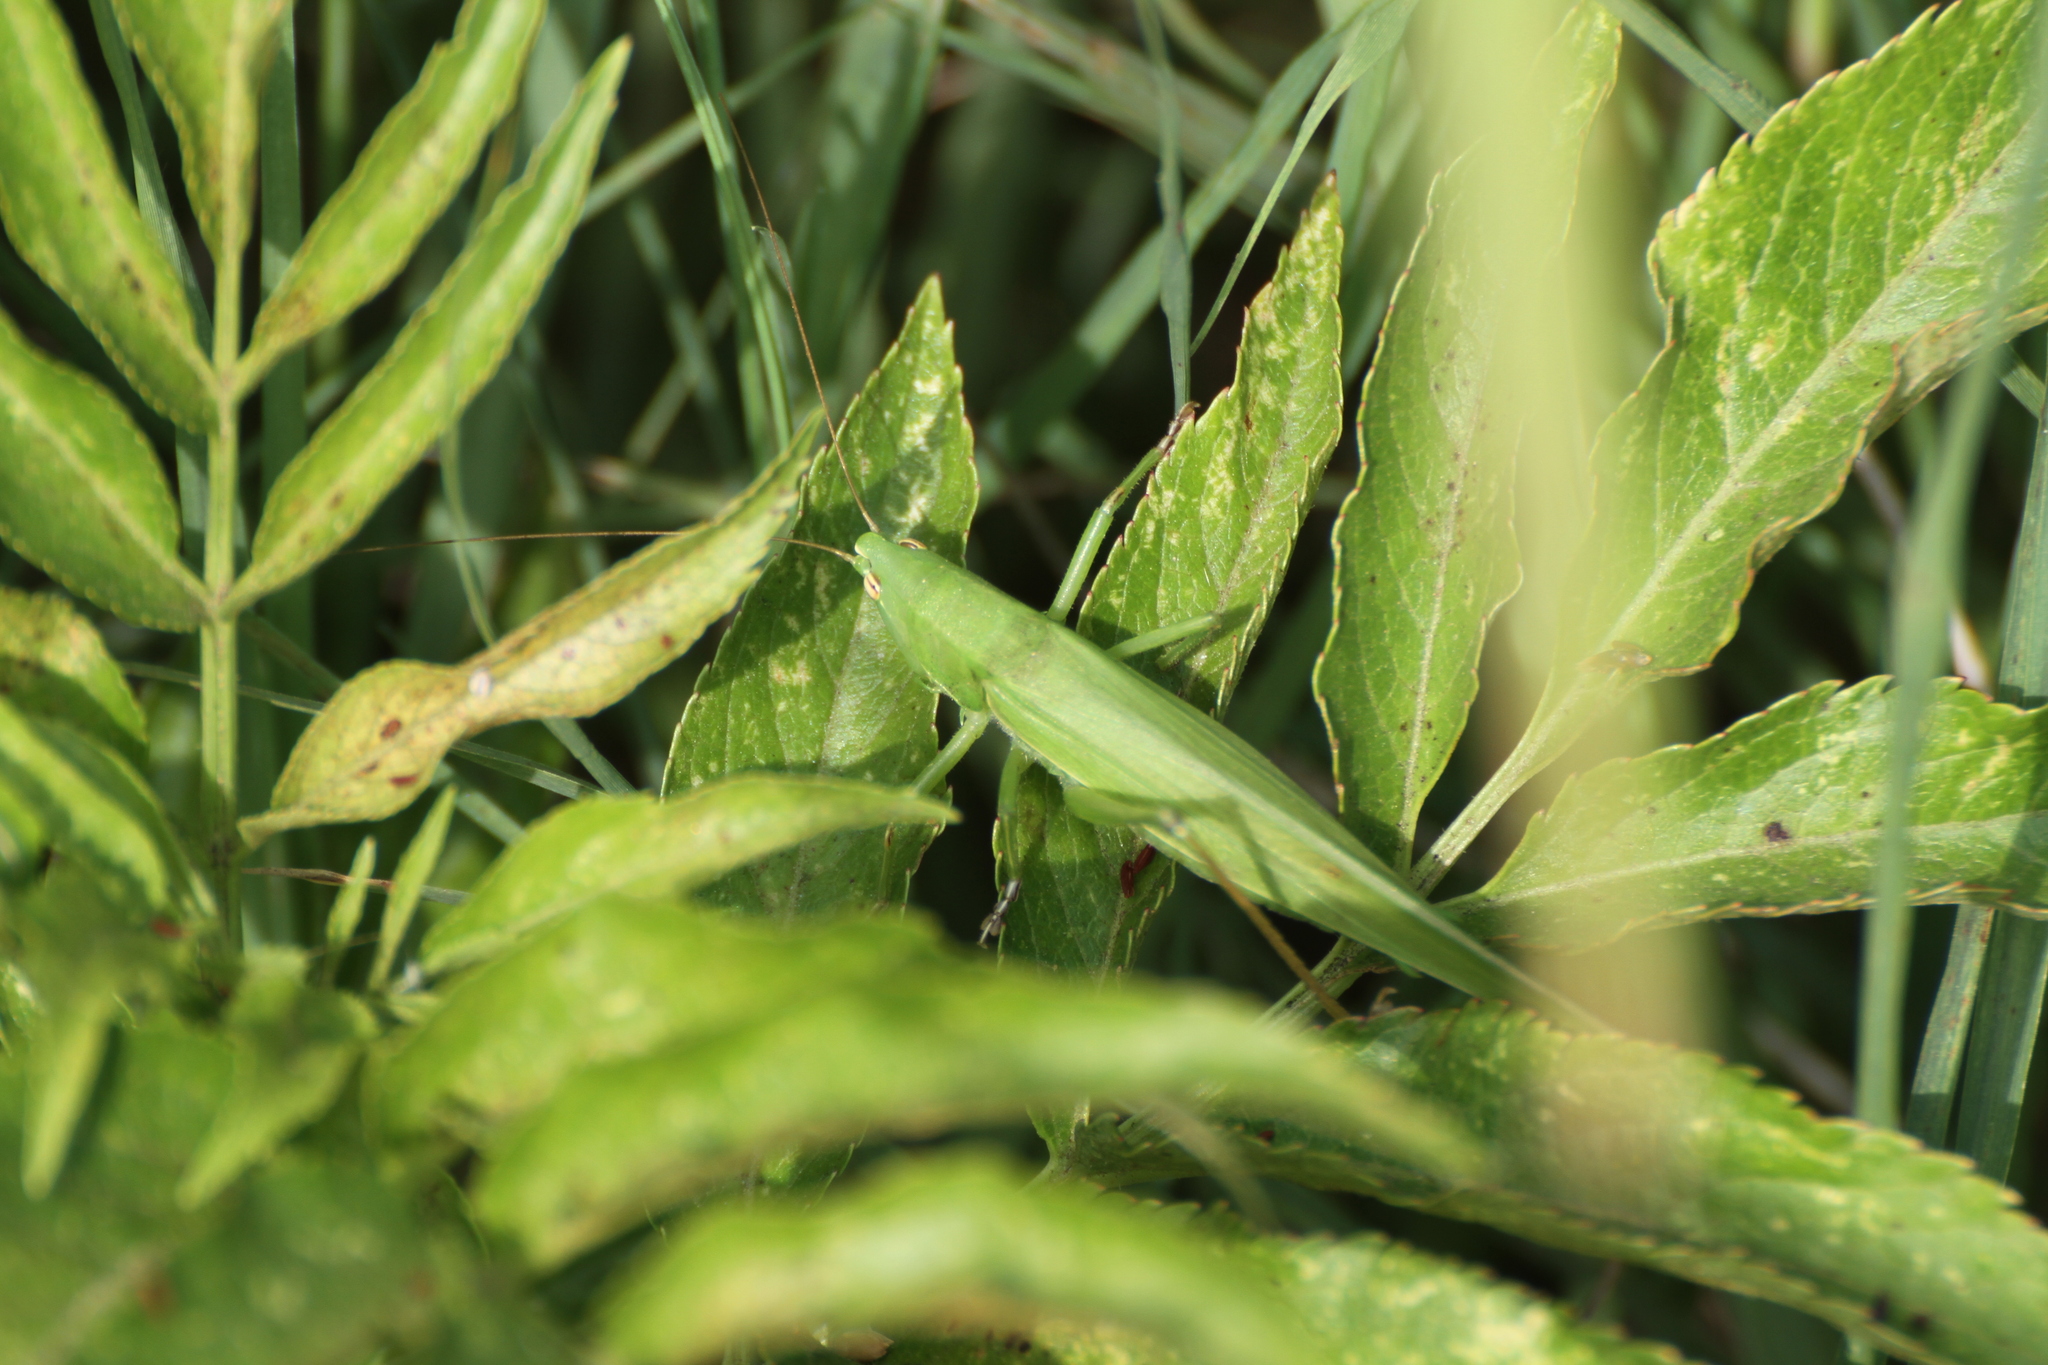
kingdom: Animalia
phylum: Arthropoda
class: Insecta
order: Orthoptera
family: Tettigoniidae
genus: Ruspolia
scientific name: Ruspolia nitidula
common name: Large conehead
